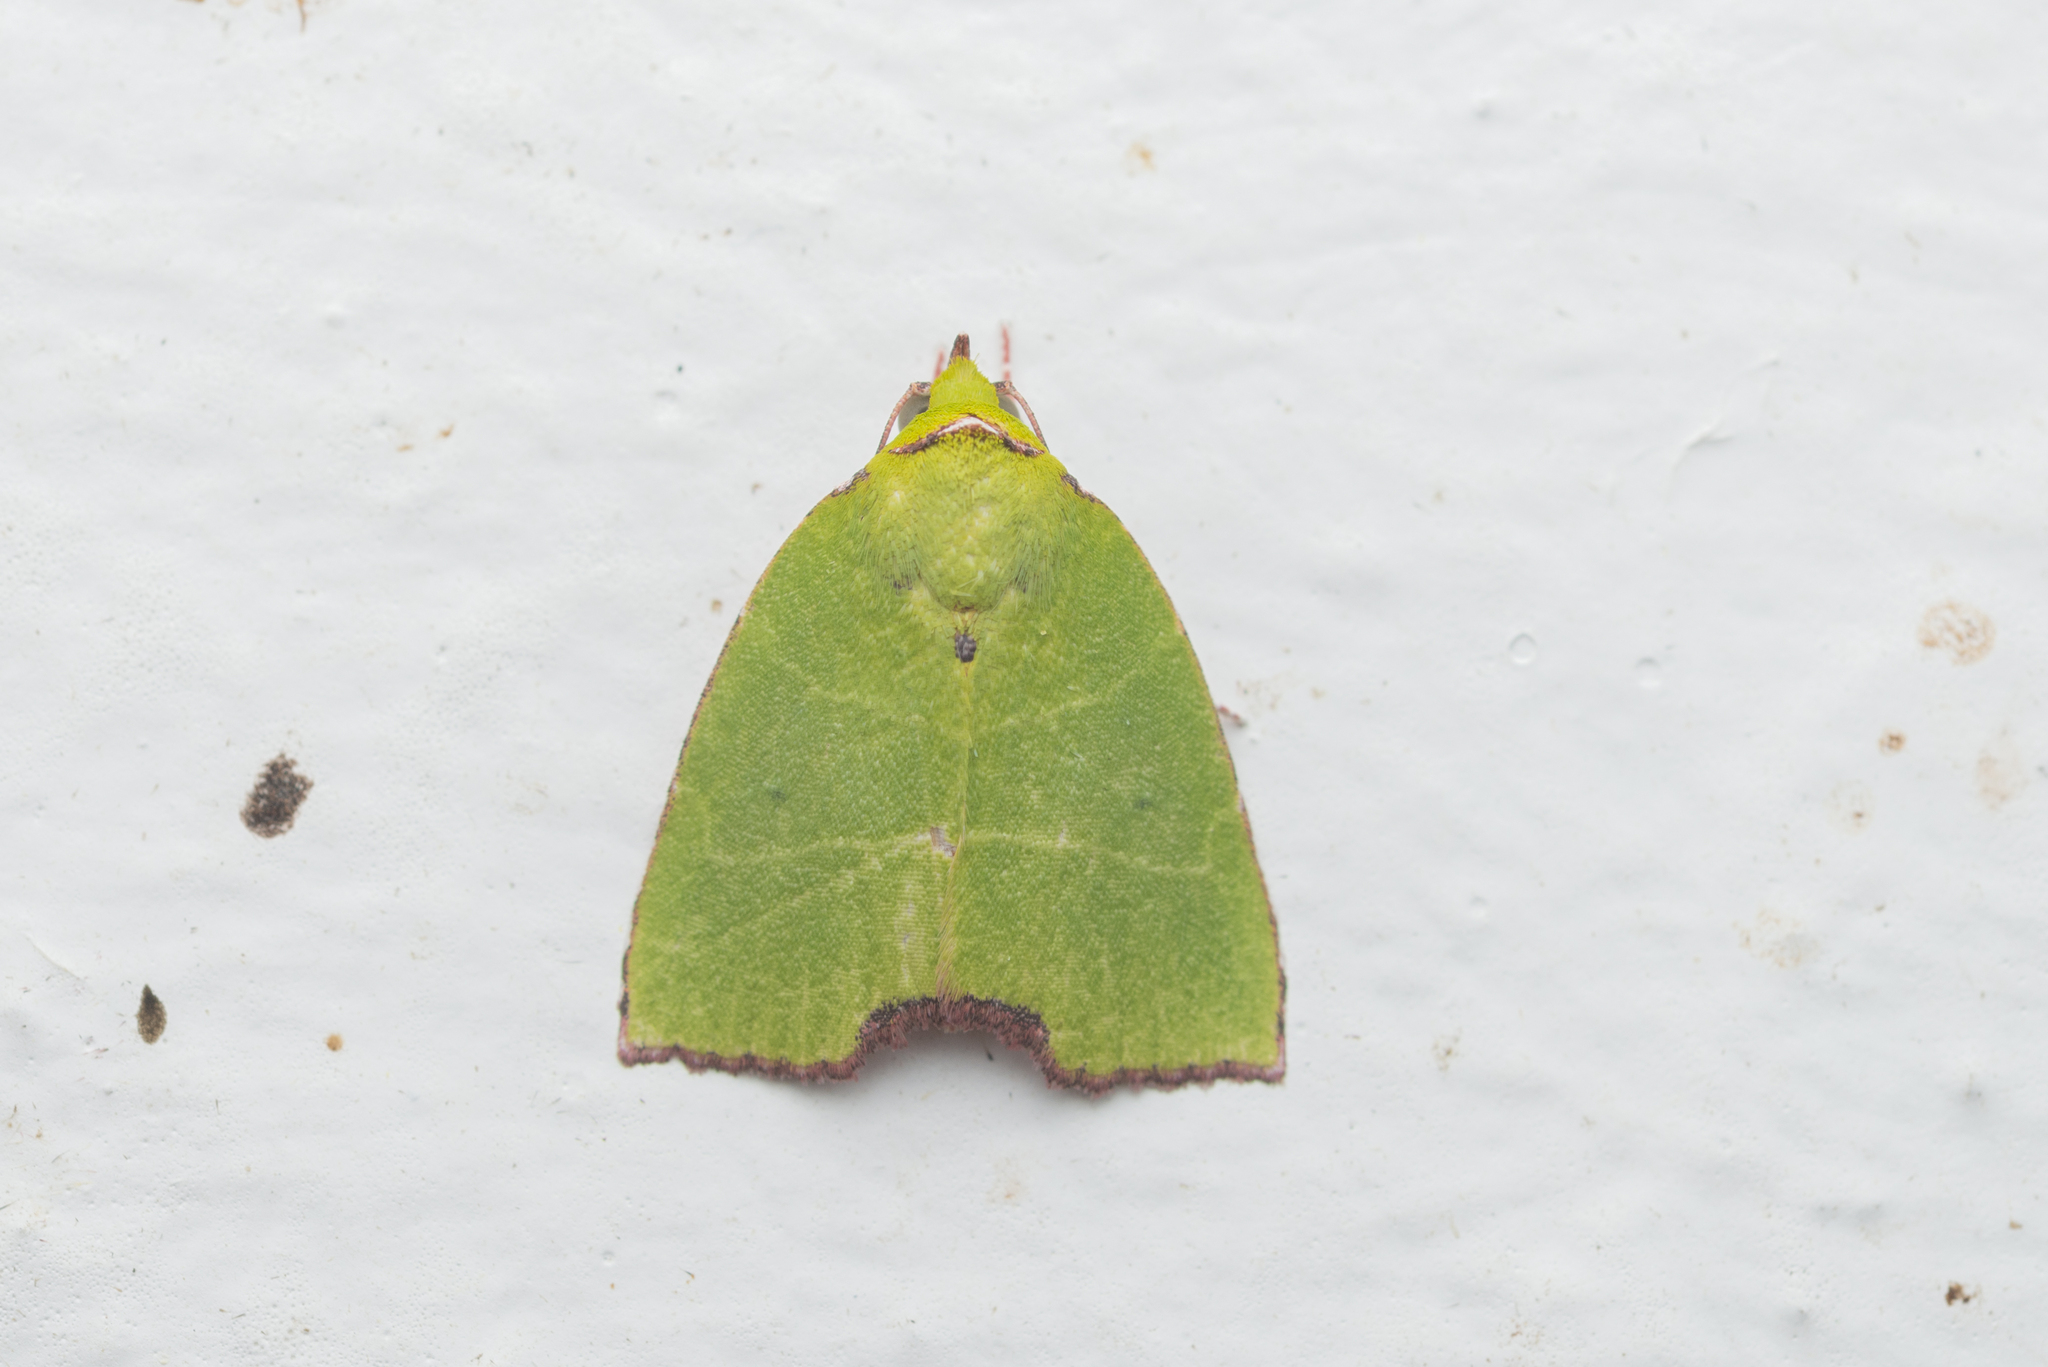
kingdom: Animalia
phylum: Arthropoda
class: Insecta
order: Lepidoptera
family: Nolidae
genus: Paracrama
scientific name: Paracrama angulata
